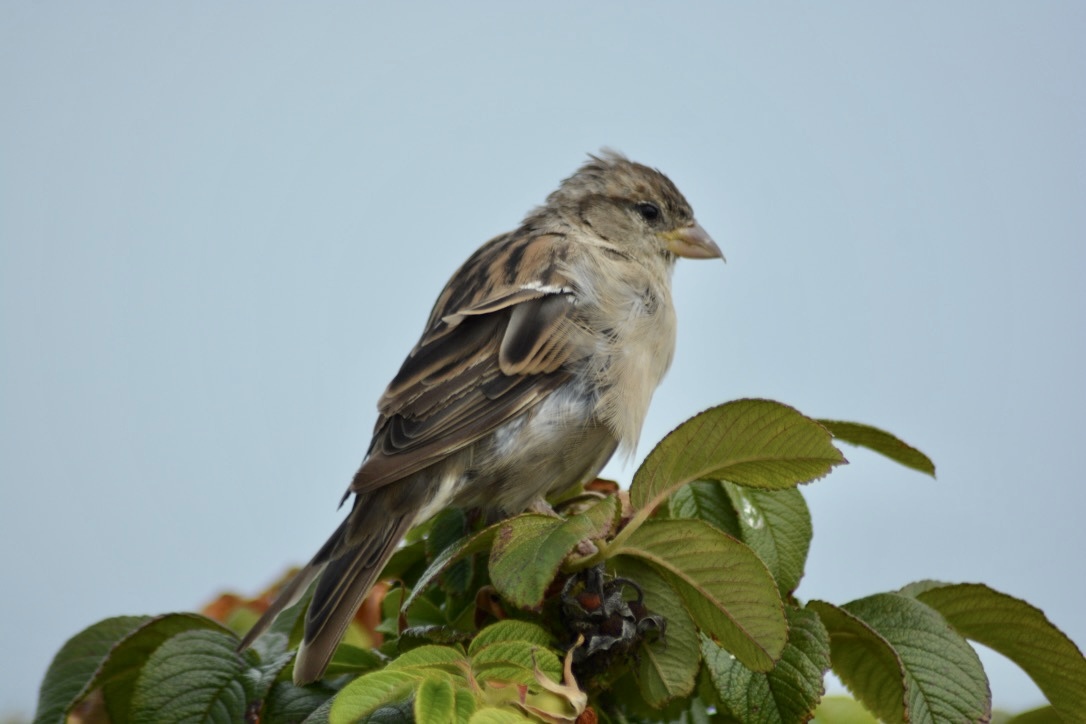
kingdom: Animalia
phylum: Chordata
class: Aves
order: Passeriformes
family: Passeridae
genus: Passer
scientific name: Passer domesticus
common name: House sparrow
